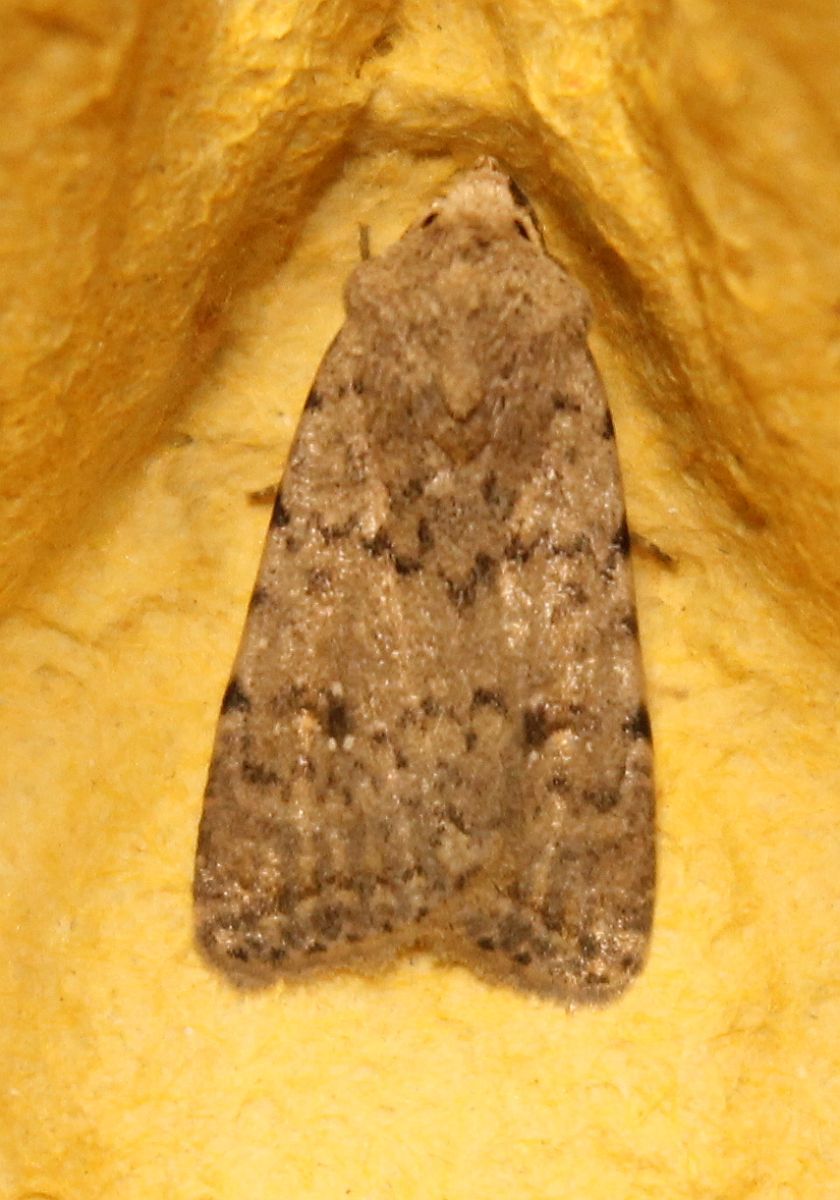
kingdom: Animalia
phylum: Arthropoda
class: Insecta
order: Lepidoptera
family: Noctuidae
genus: Caradrina
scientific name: Caradrina clavipalpis
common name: Pale mottled willow
